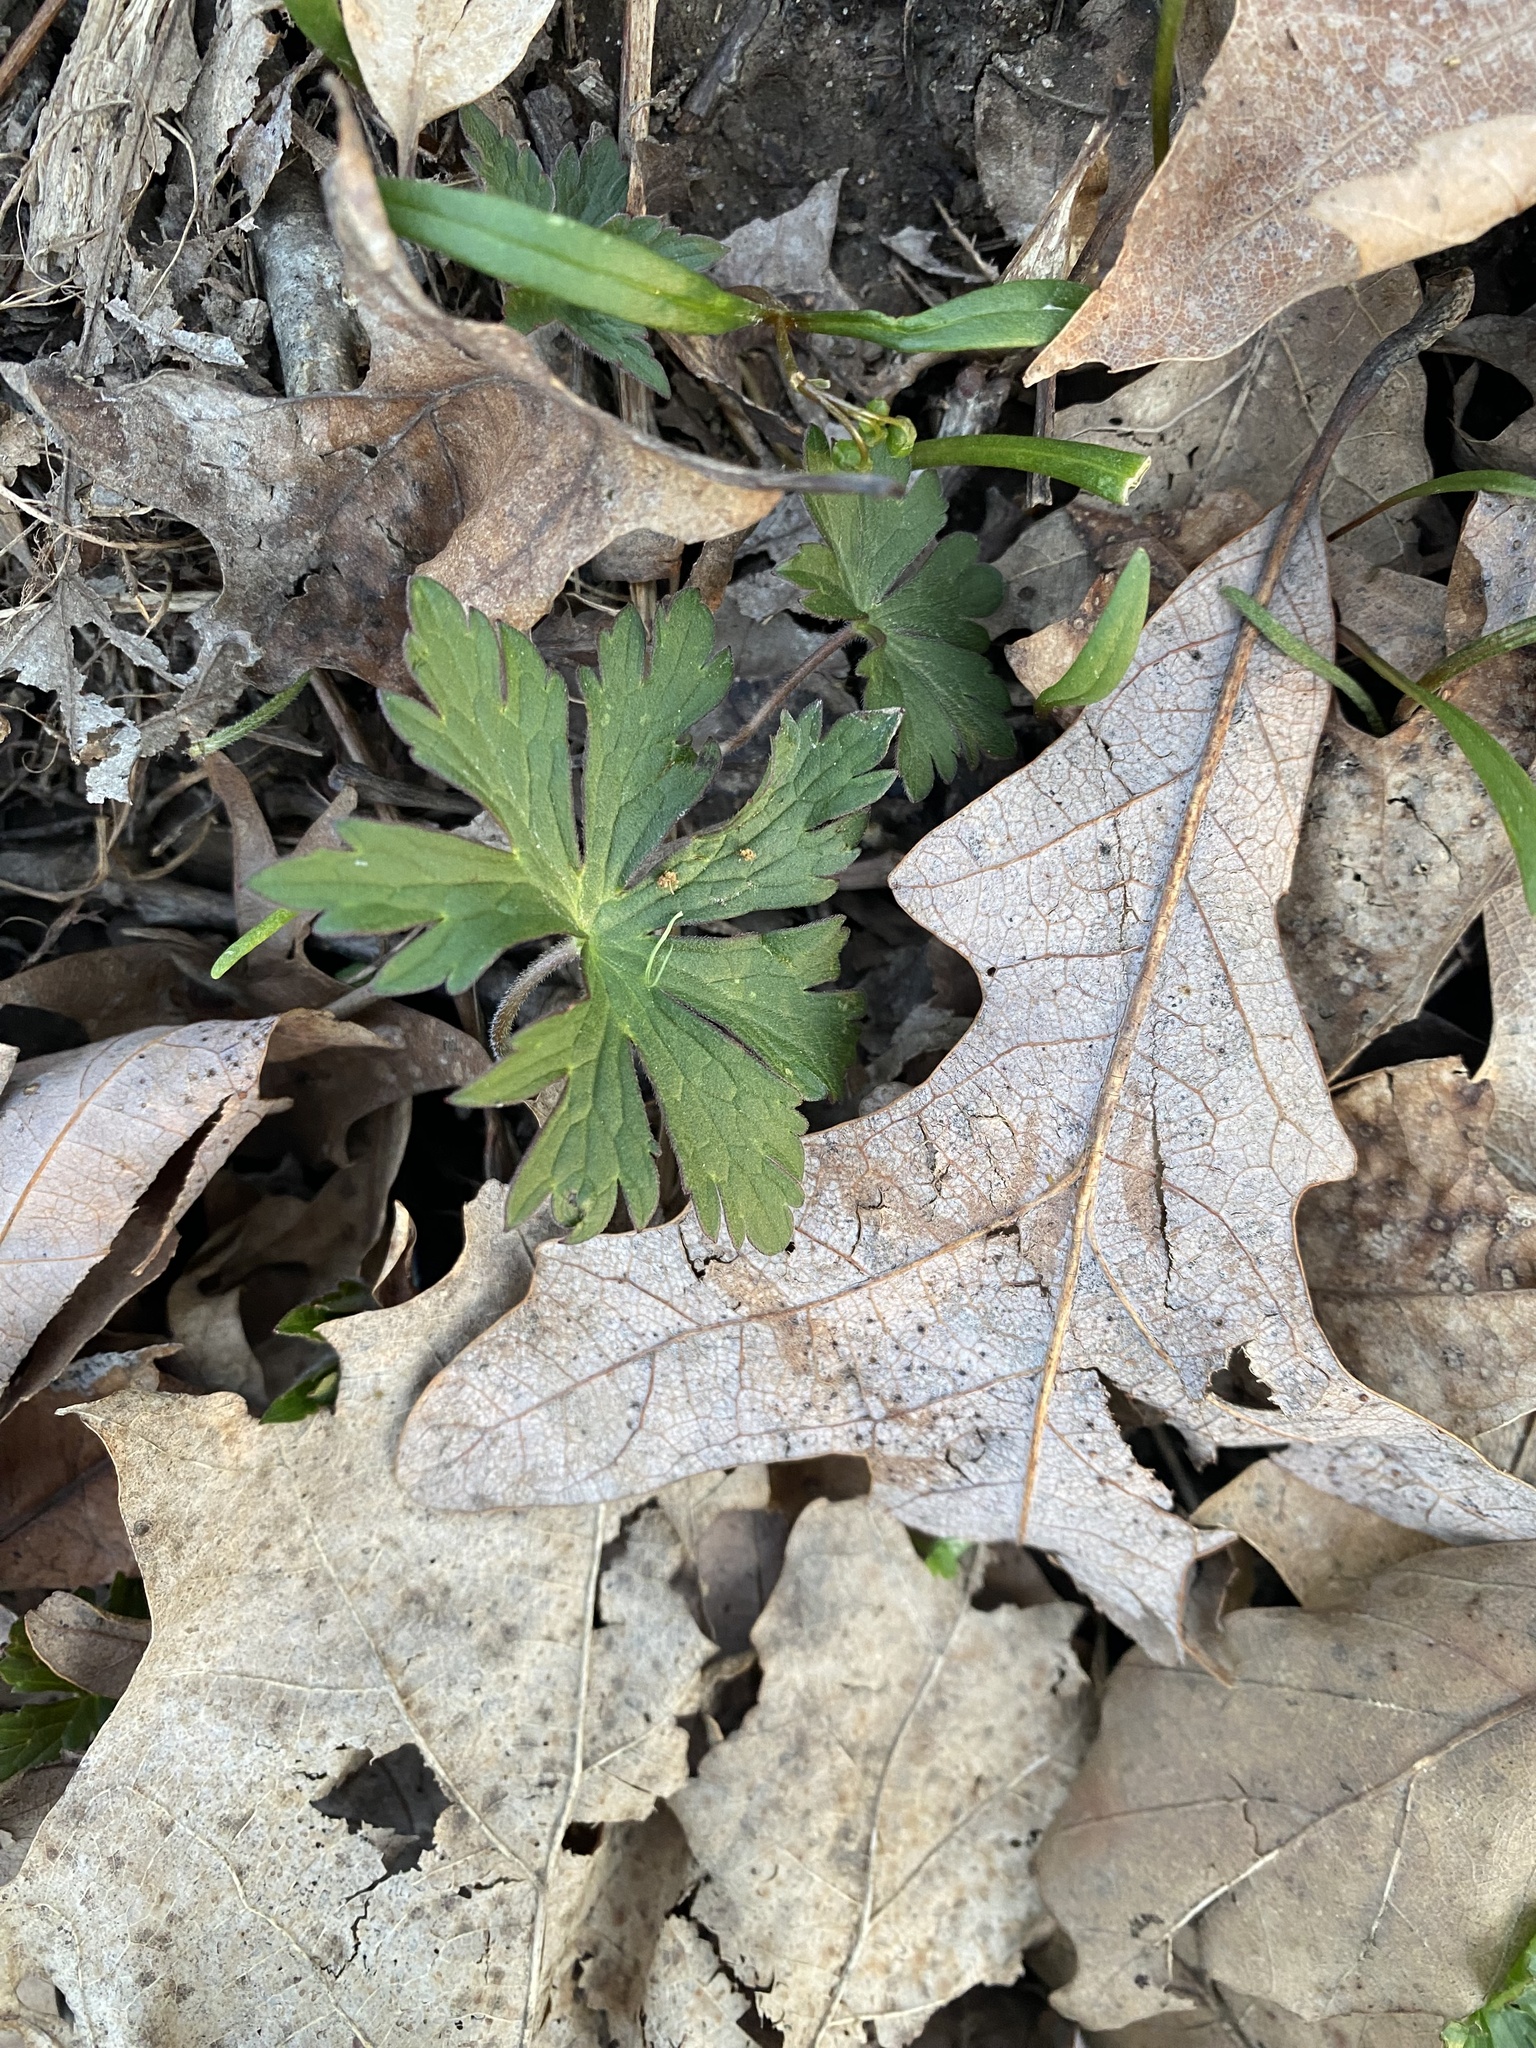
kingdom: Plantae
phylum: Tracheophyta
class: Magnoliopsida
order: Geraniales
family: Geraniaceae
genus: Geranium
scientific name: Geranium maculatum
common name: Spotted geranium
